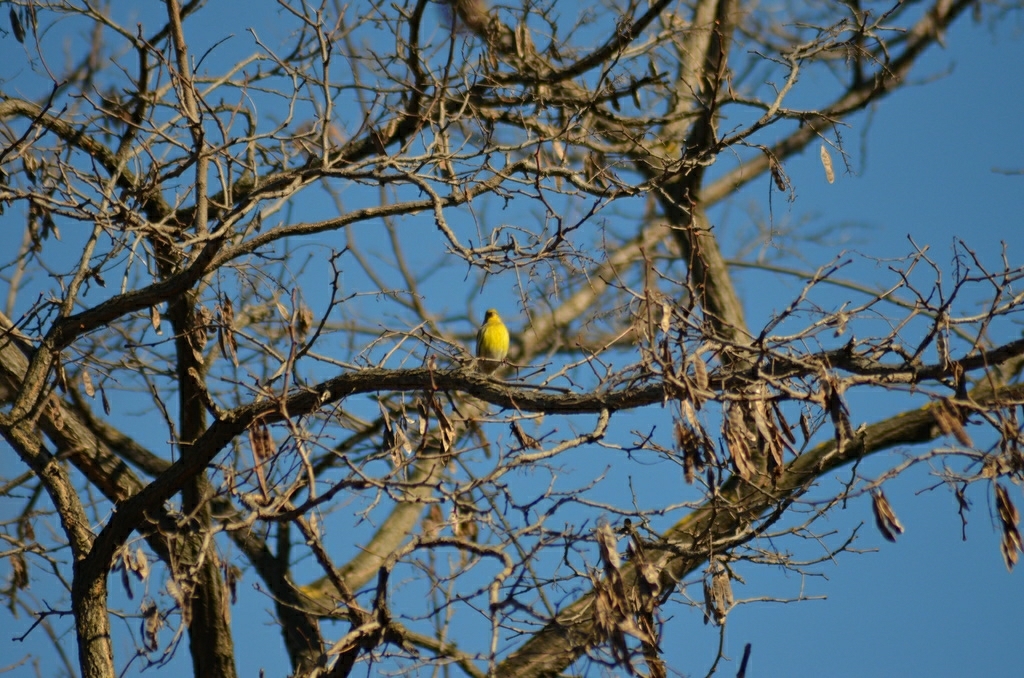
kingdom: Animalia
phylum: Chordata
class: Aves
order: Passeriformes
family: Fringillidae
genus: Serinus
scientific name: Serinus serinus
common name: European serin
